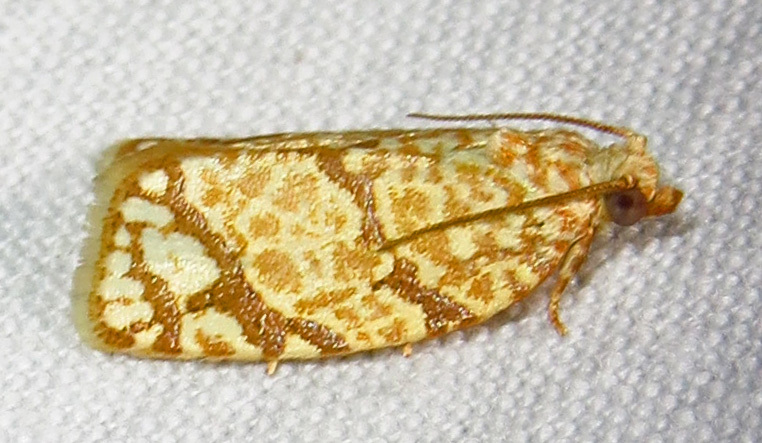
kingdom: Animalia
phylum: Arthropoda
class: Insecta
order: Lepidoptera
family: Tortricidae
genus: Argyrotaenia
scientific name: Argyrotaenia quercifoliana
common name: Yellow-winged oak leafroller moth
